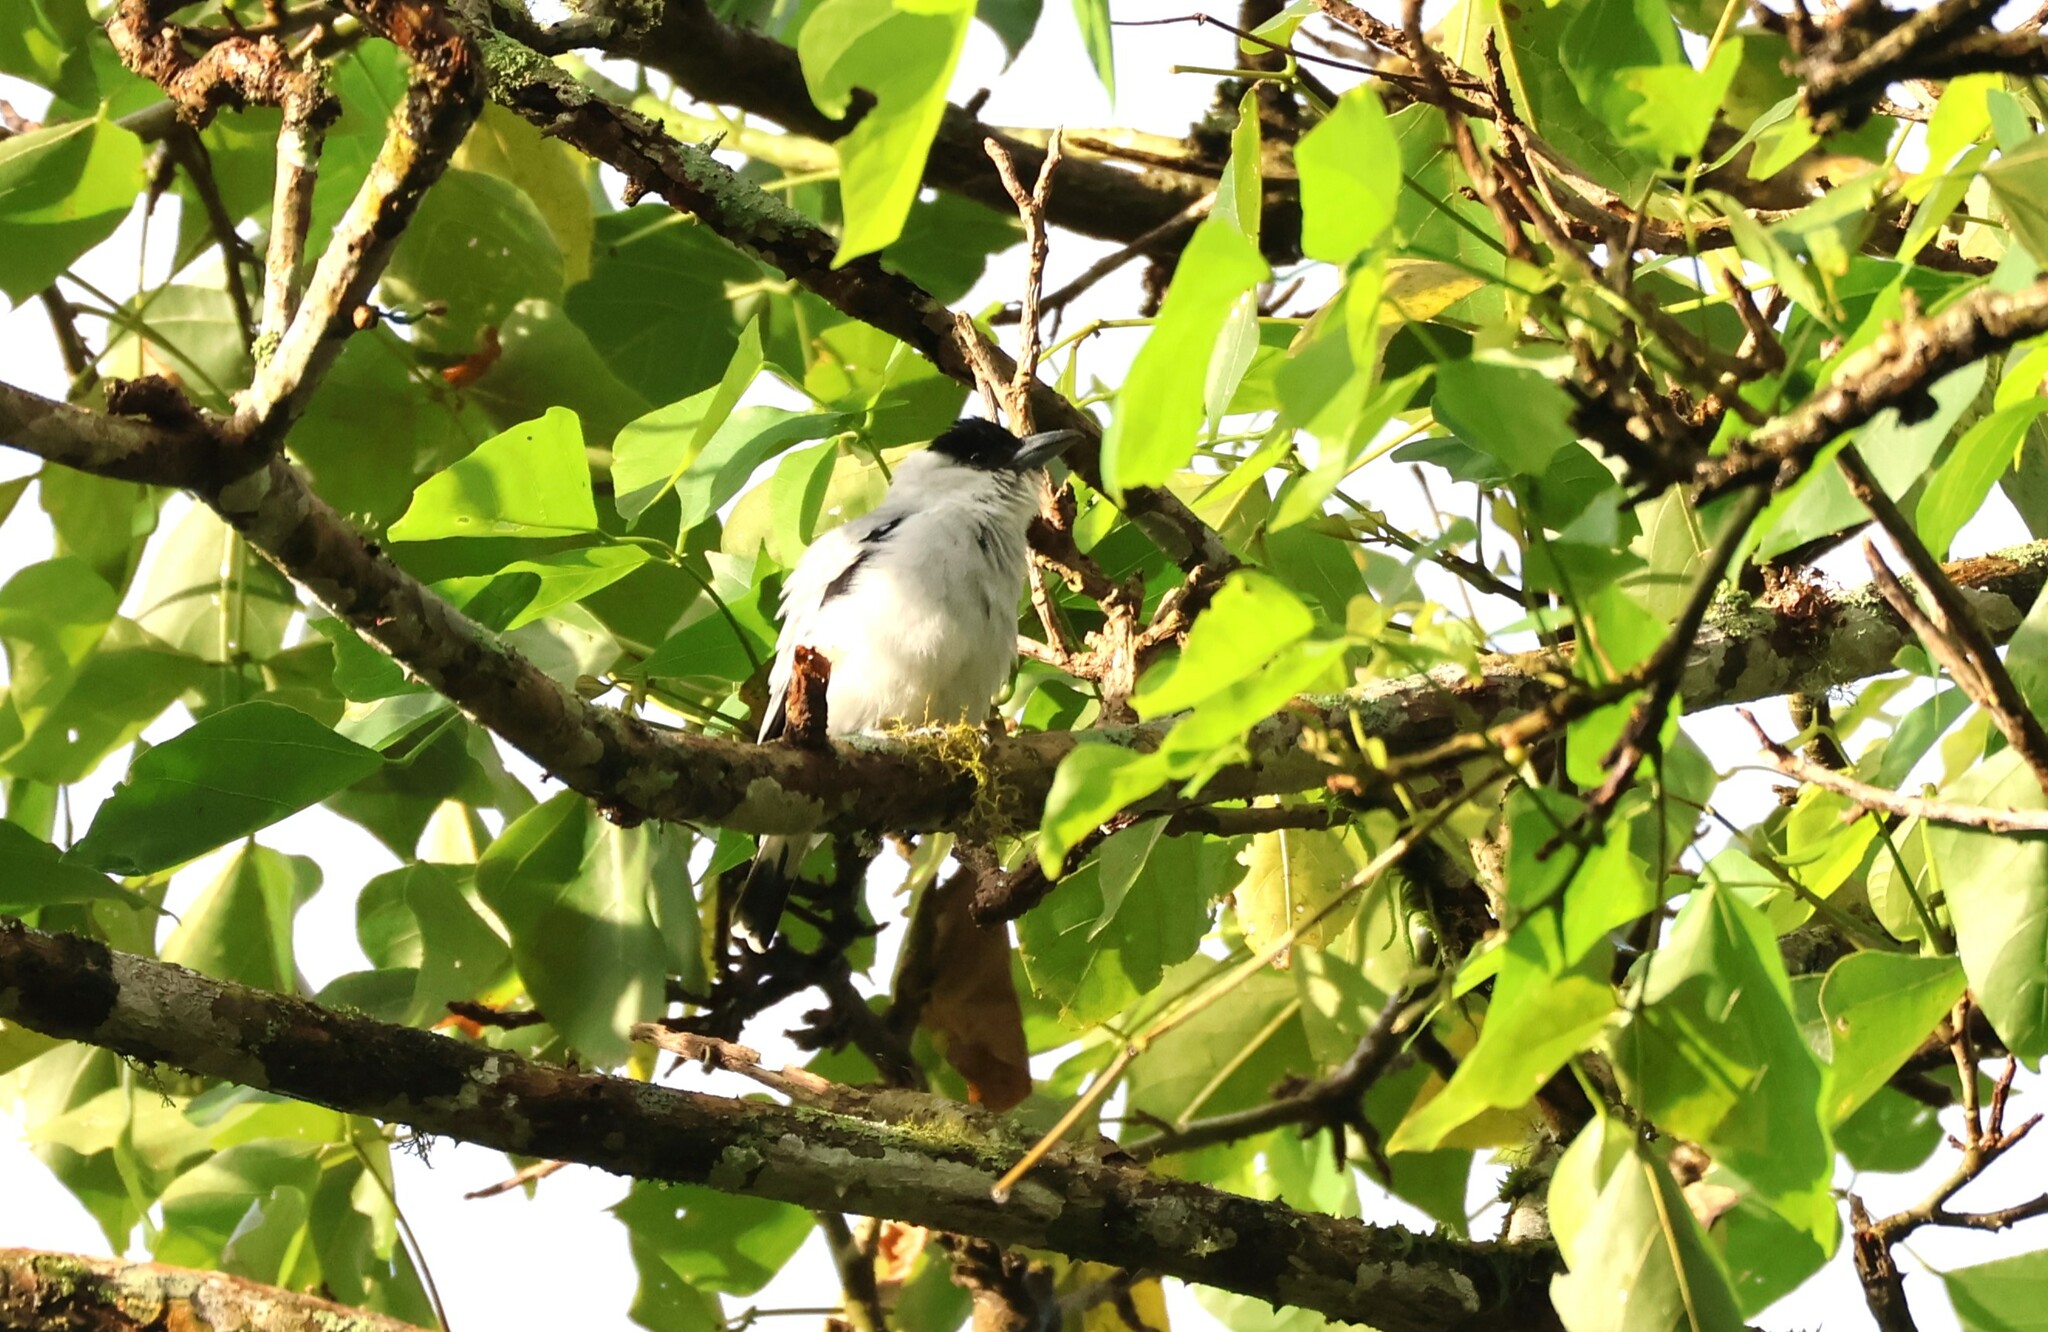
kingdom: Animalia
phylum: Chordata
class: Aves
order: Passeriformes
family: Cotingidae
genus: Tityra
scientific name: Tityra inquisitor
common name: Black-crowned tityra
